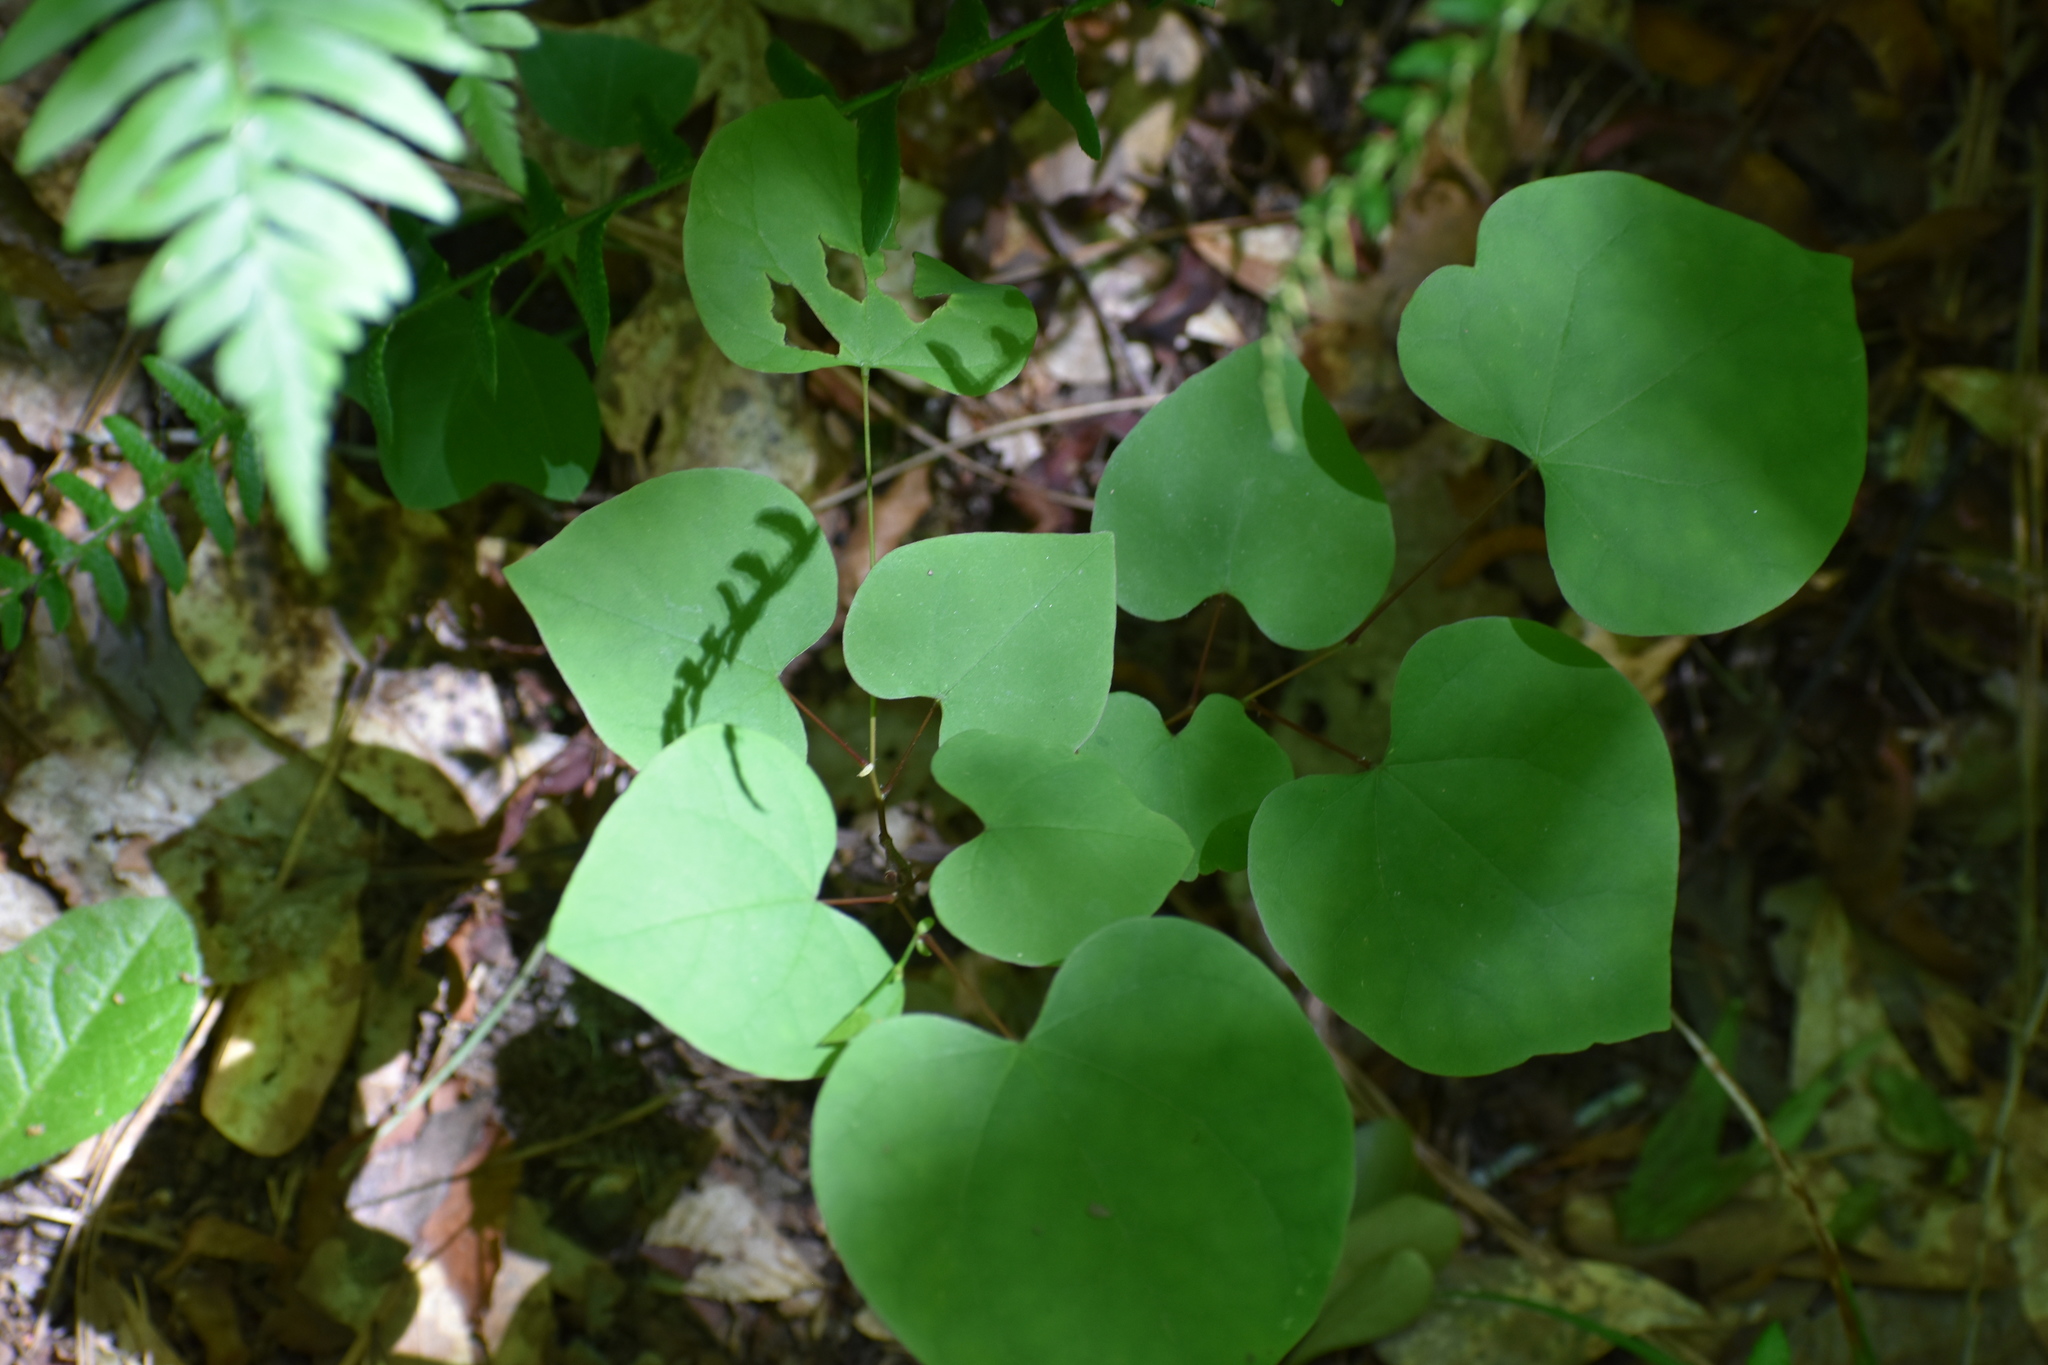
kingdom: Plantae
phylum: Tracheophyta
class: Magnoliopsida
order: Fabales
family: Fabaceae
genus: Cercis
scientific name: Cercis canadensis
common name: Eastern redbud
